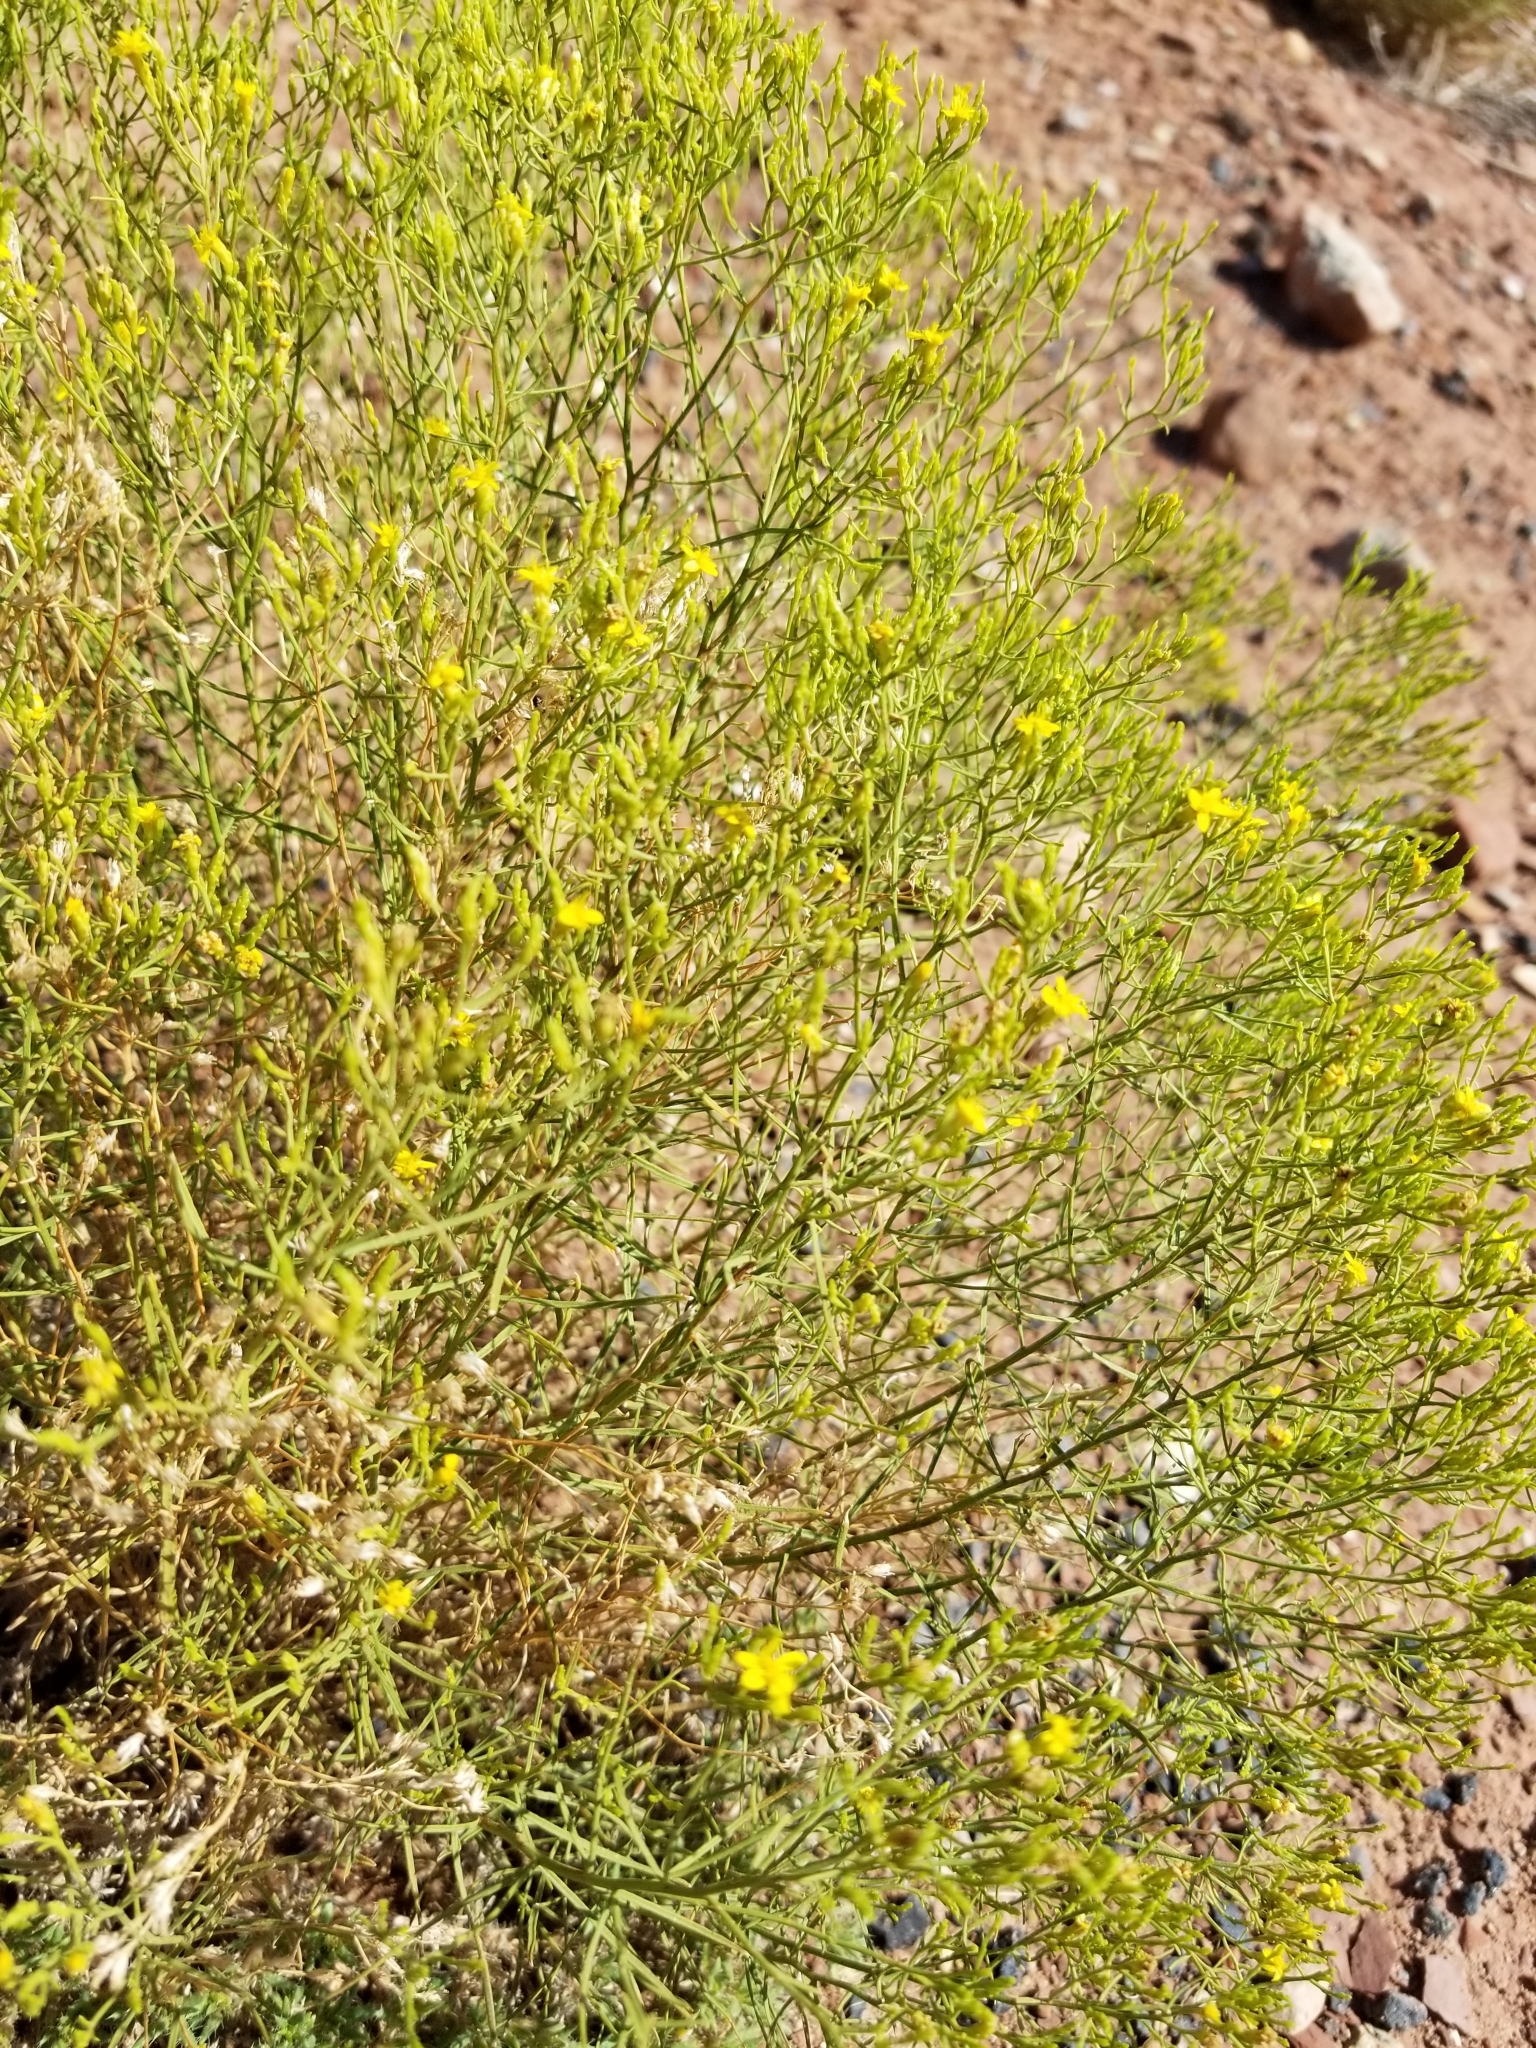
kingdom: Plantae
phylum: Tracheophyta
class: Magnoliopsida
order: Asterales
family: Asteraceae
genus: Gutierrezia
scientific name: Gutierrezia sarothrae
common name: Broom snakeweed
